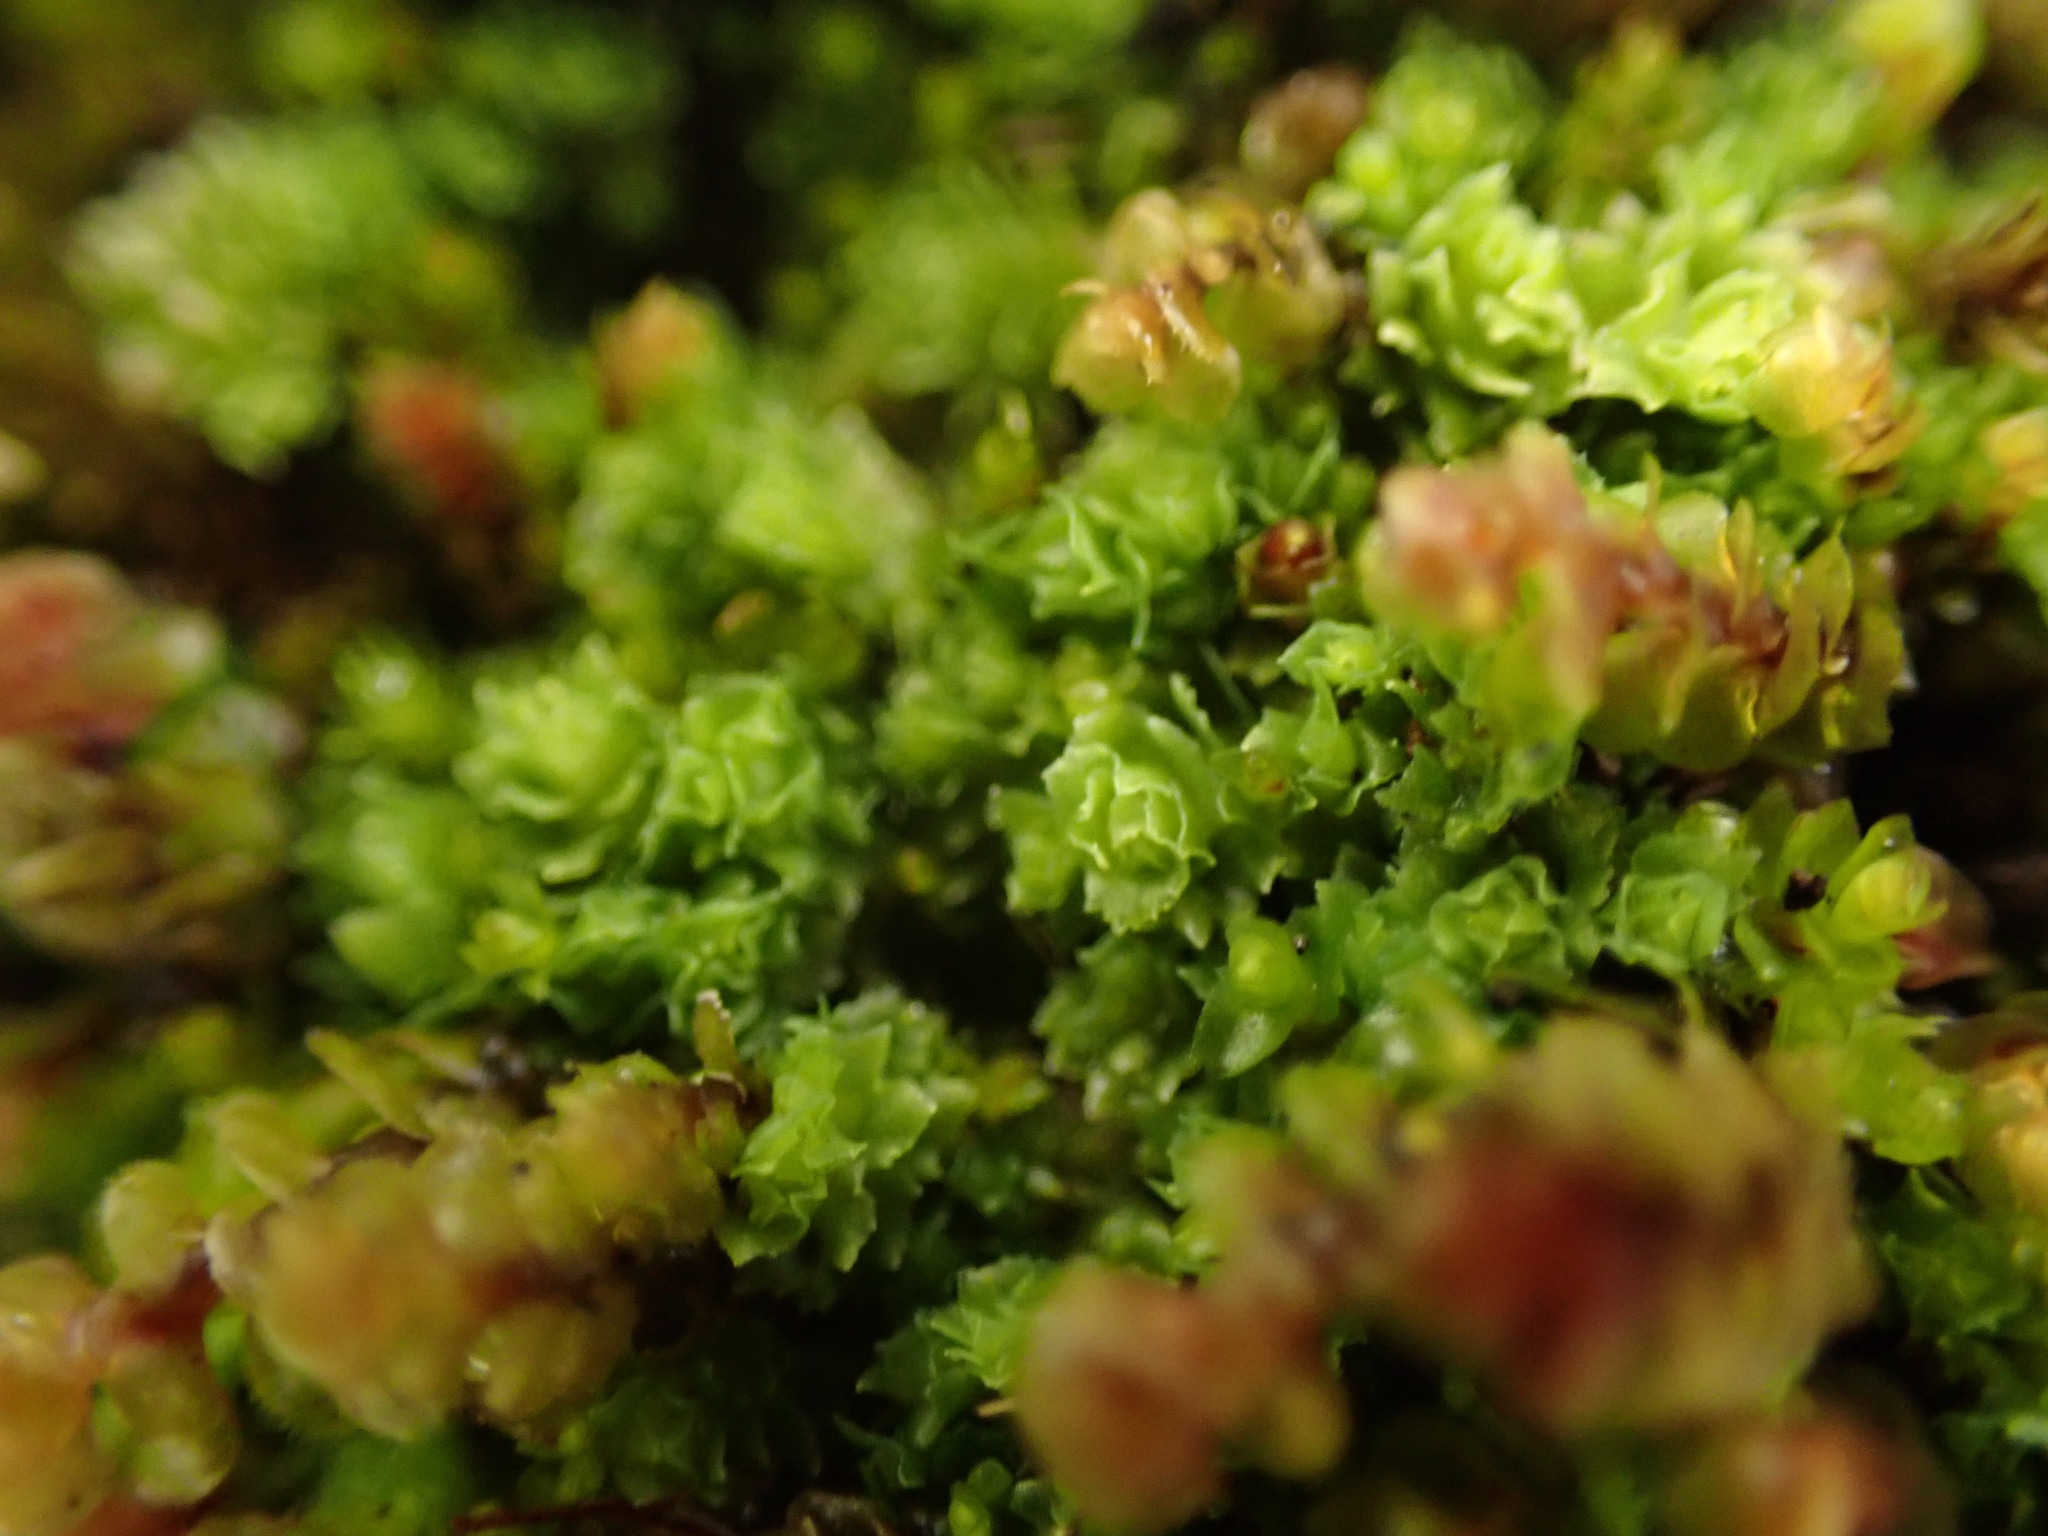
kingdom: Plantae
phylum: Marchantiophyta
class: Jungermanniopsida
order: Jungermanniales
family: Scapaniaceae
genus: Schistochilopsis
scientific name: Schistochilopsis incisa
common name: Jagged notchwort
